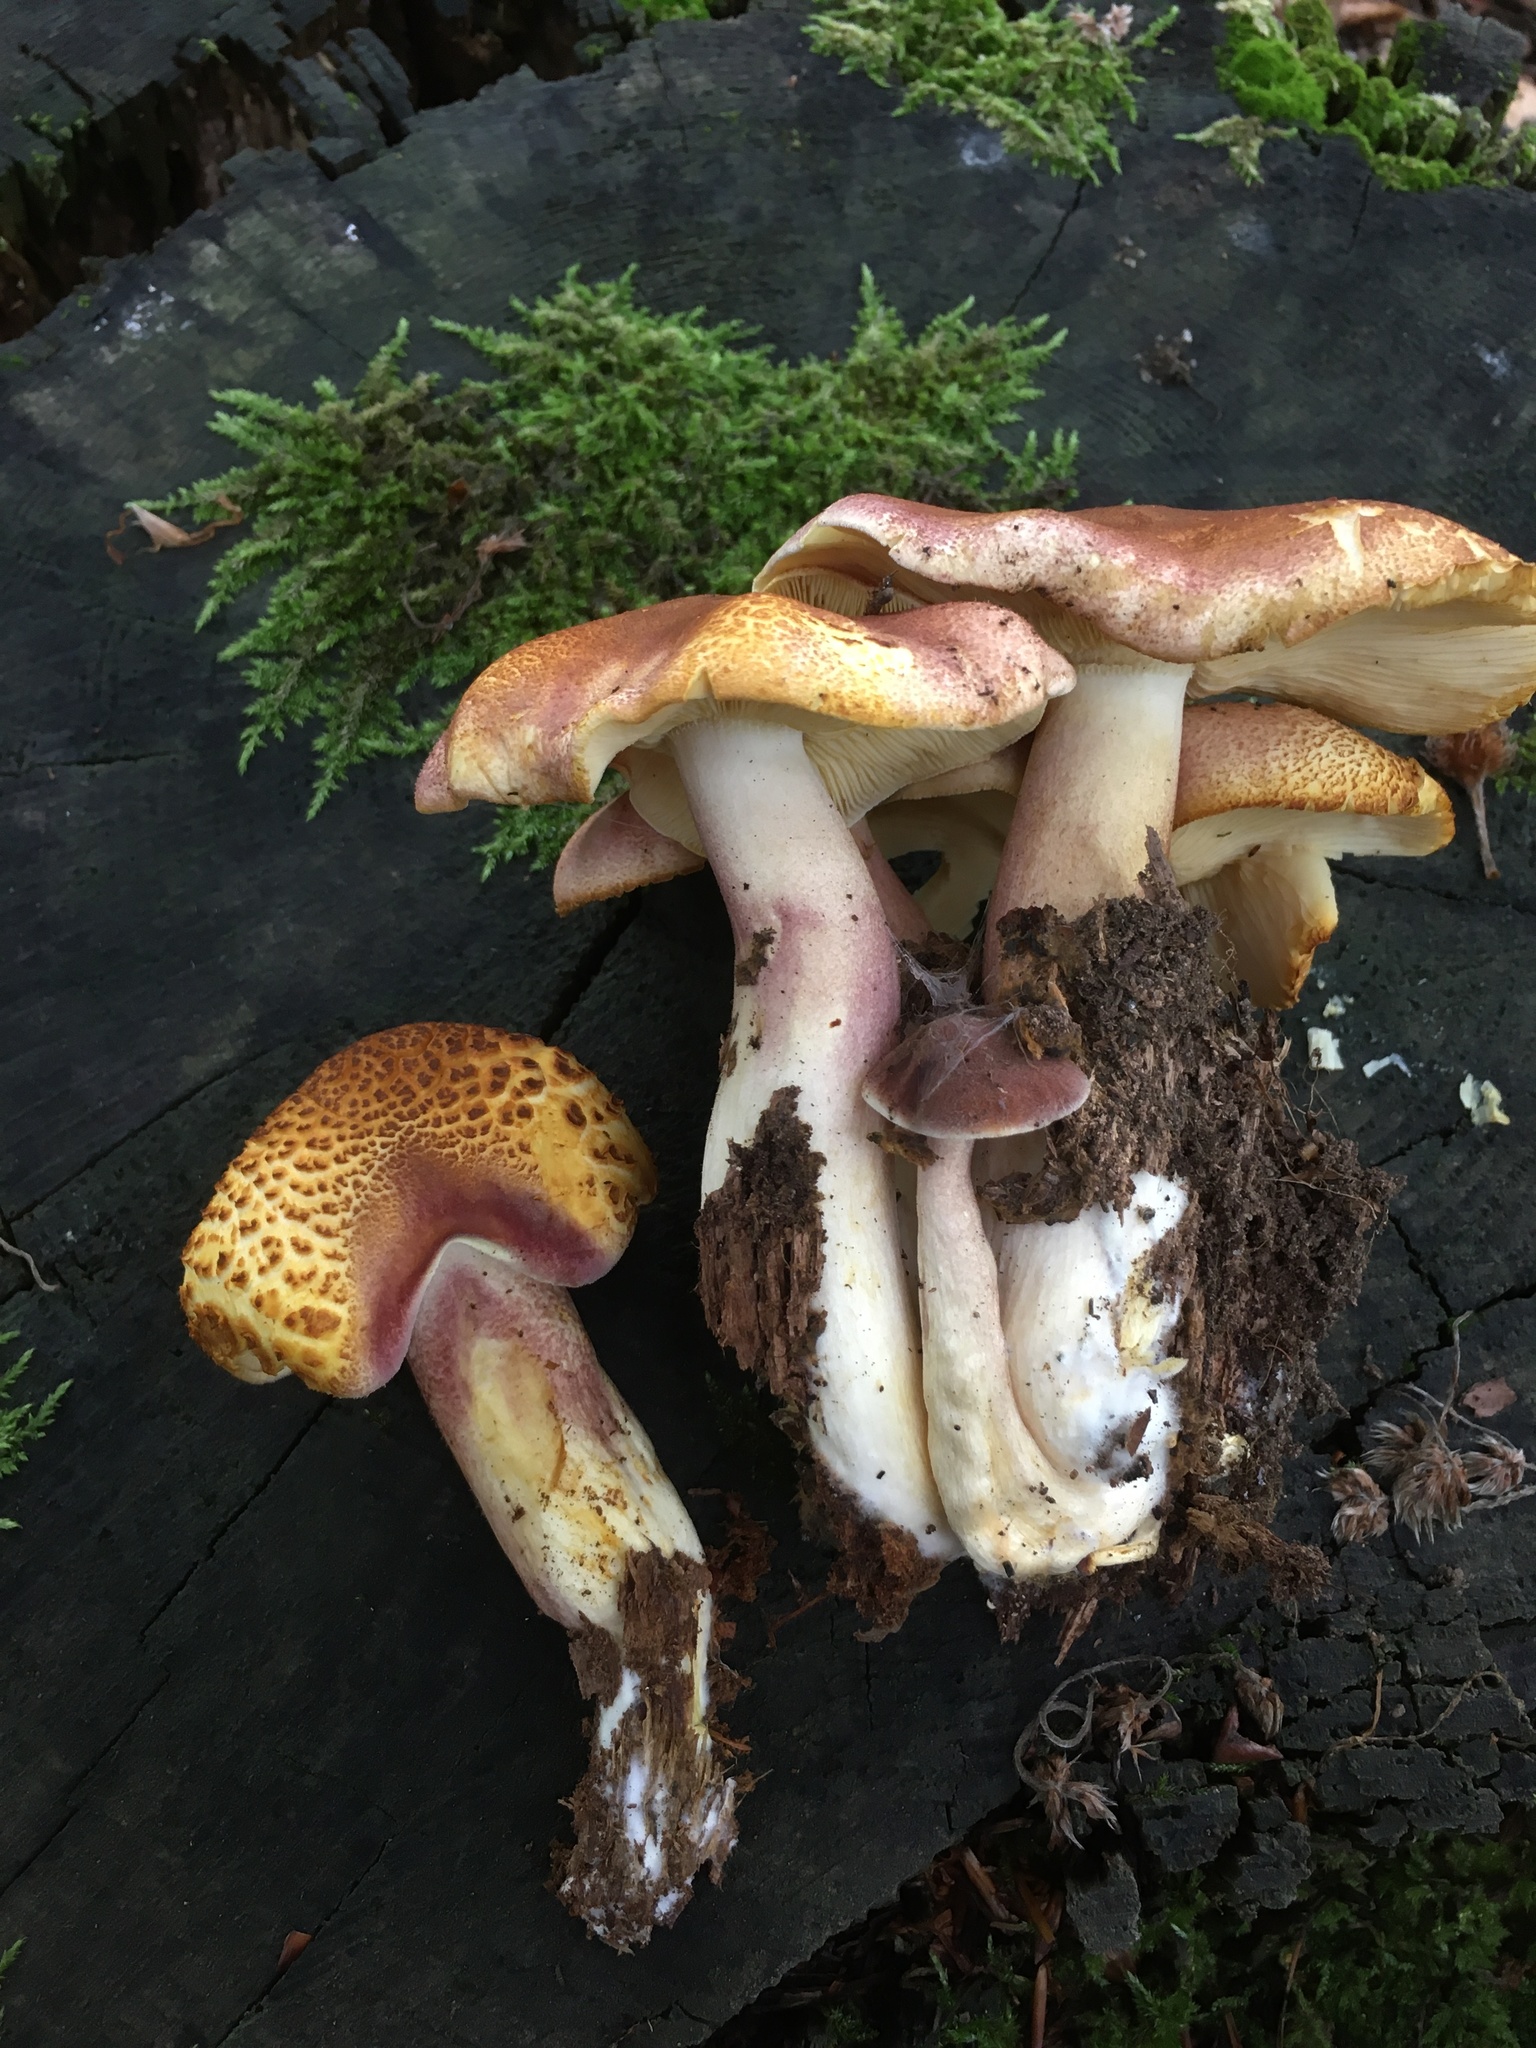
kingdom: Fungi
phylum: Basidiomycota
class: Agaricomycetes
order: Agaricales
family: Tricholomataceae
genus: Tricholomopsis
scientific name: Tricholomopsis rutilans
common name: Plums and custard
